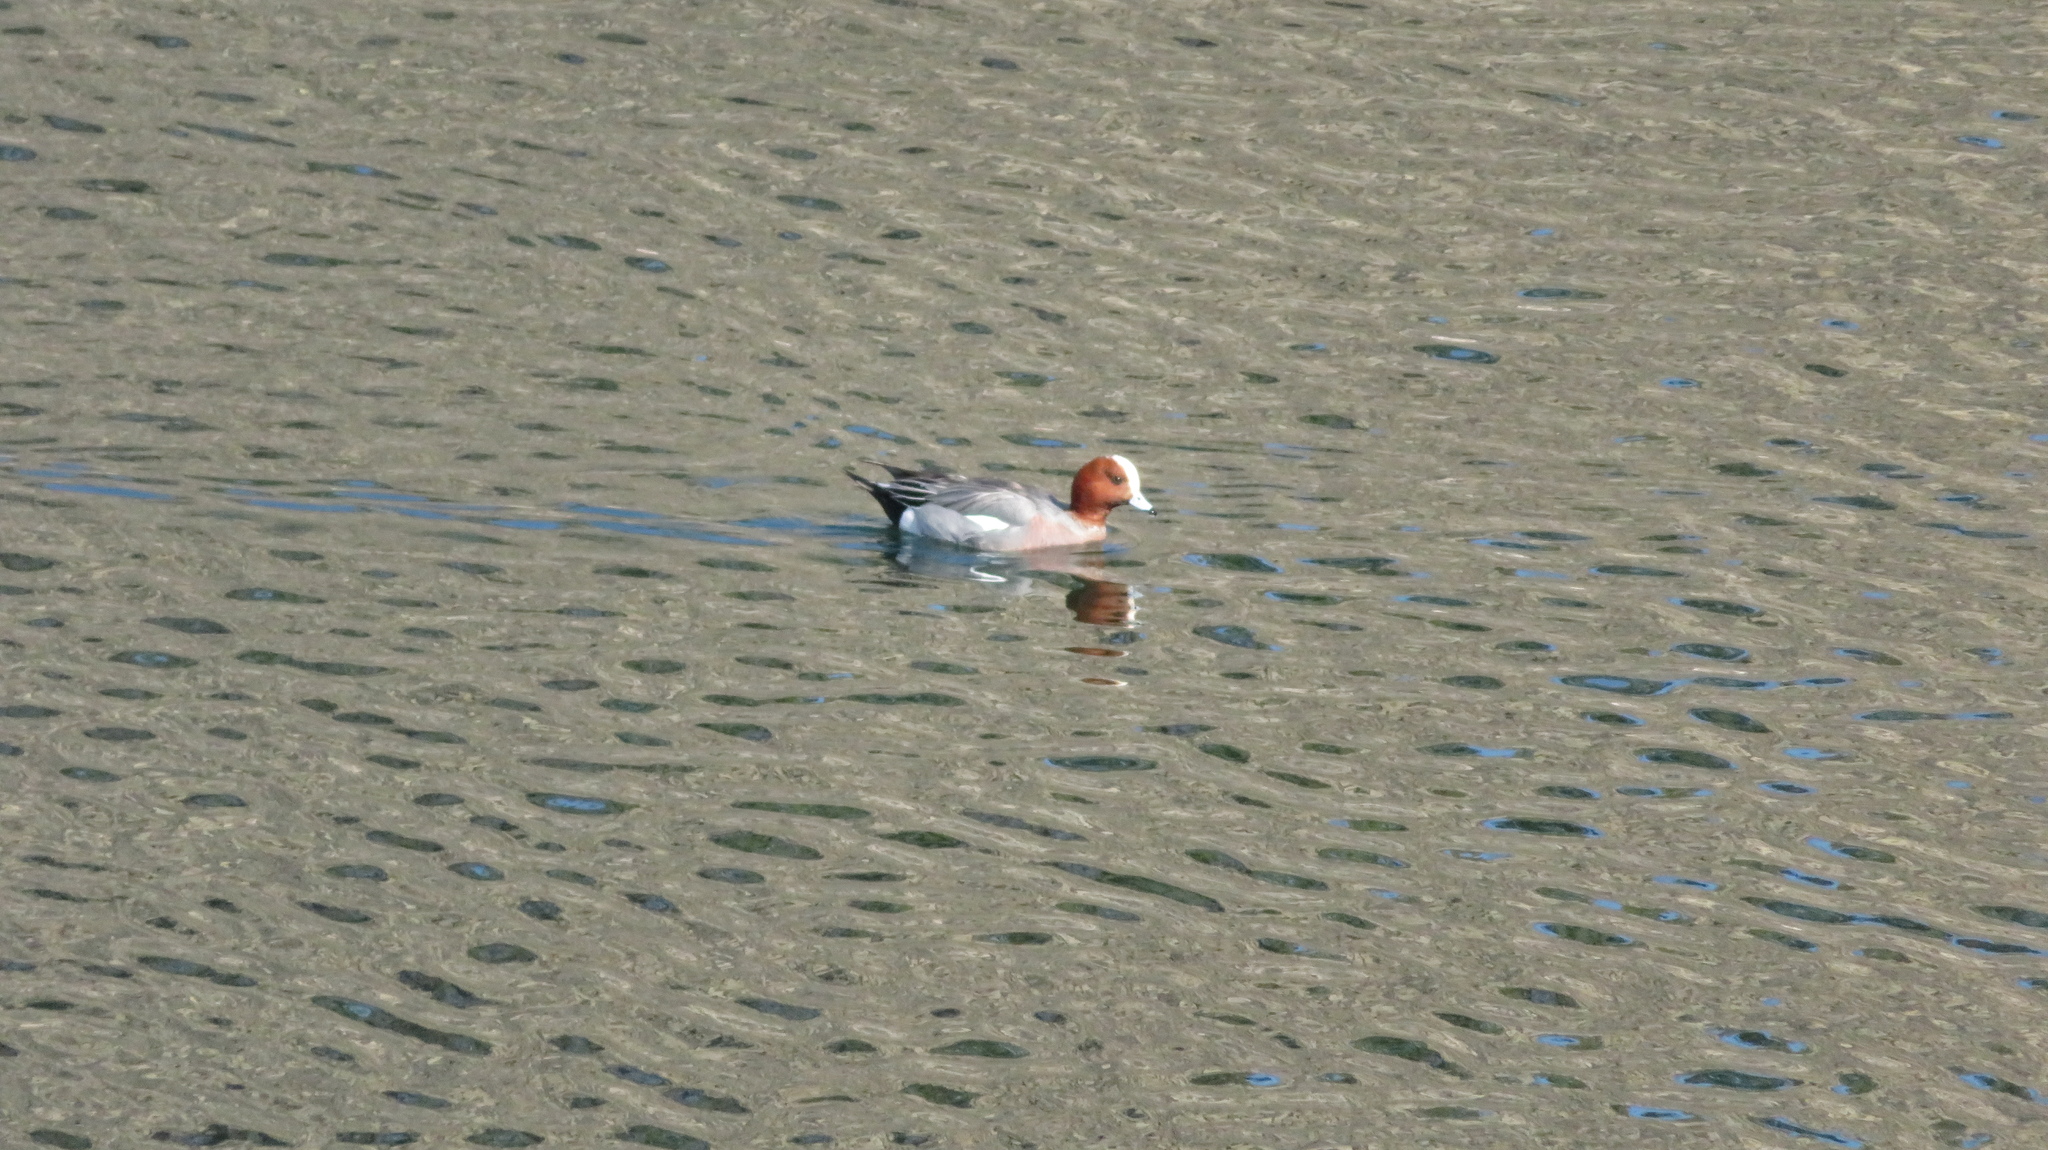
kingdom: Animalia
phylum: Chordata
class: Aves
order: Anseriformes
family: Anatidae
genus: Mareca
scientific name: Mareca penelope
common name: Eurasian wigeon
